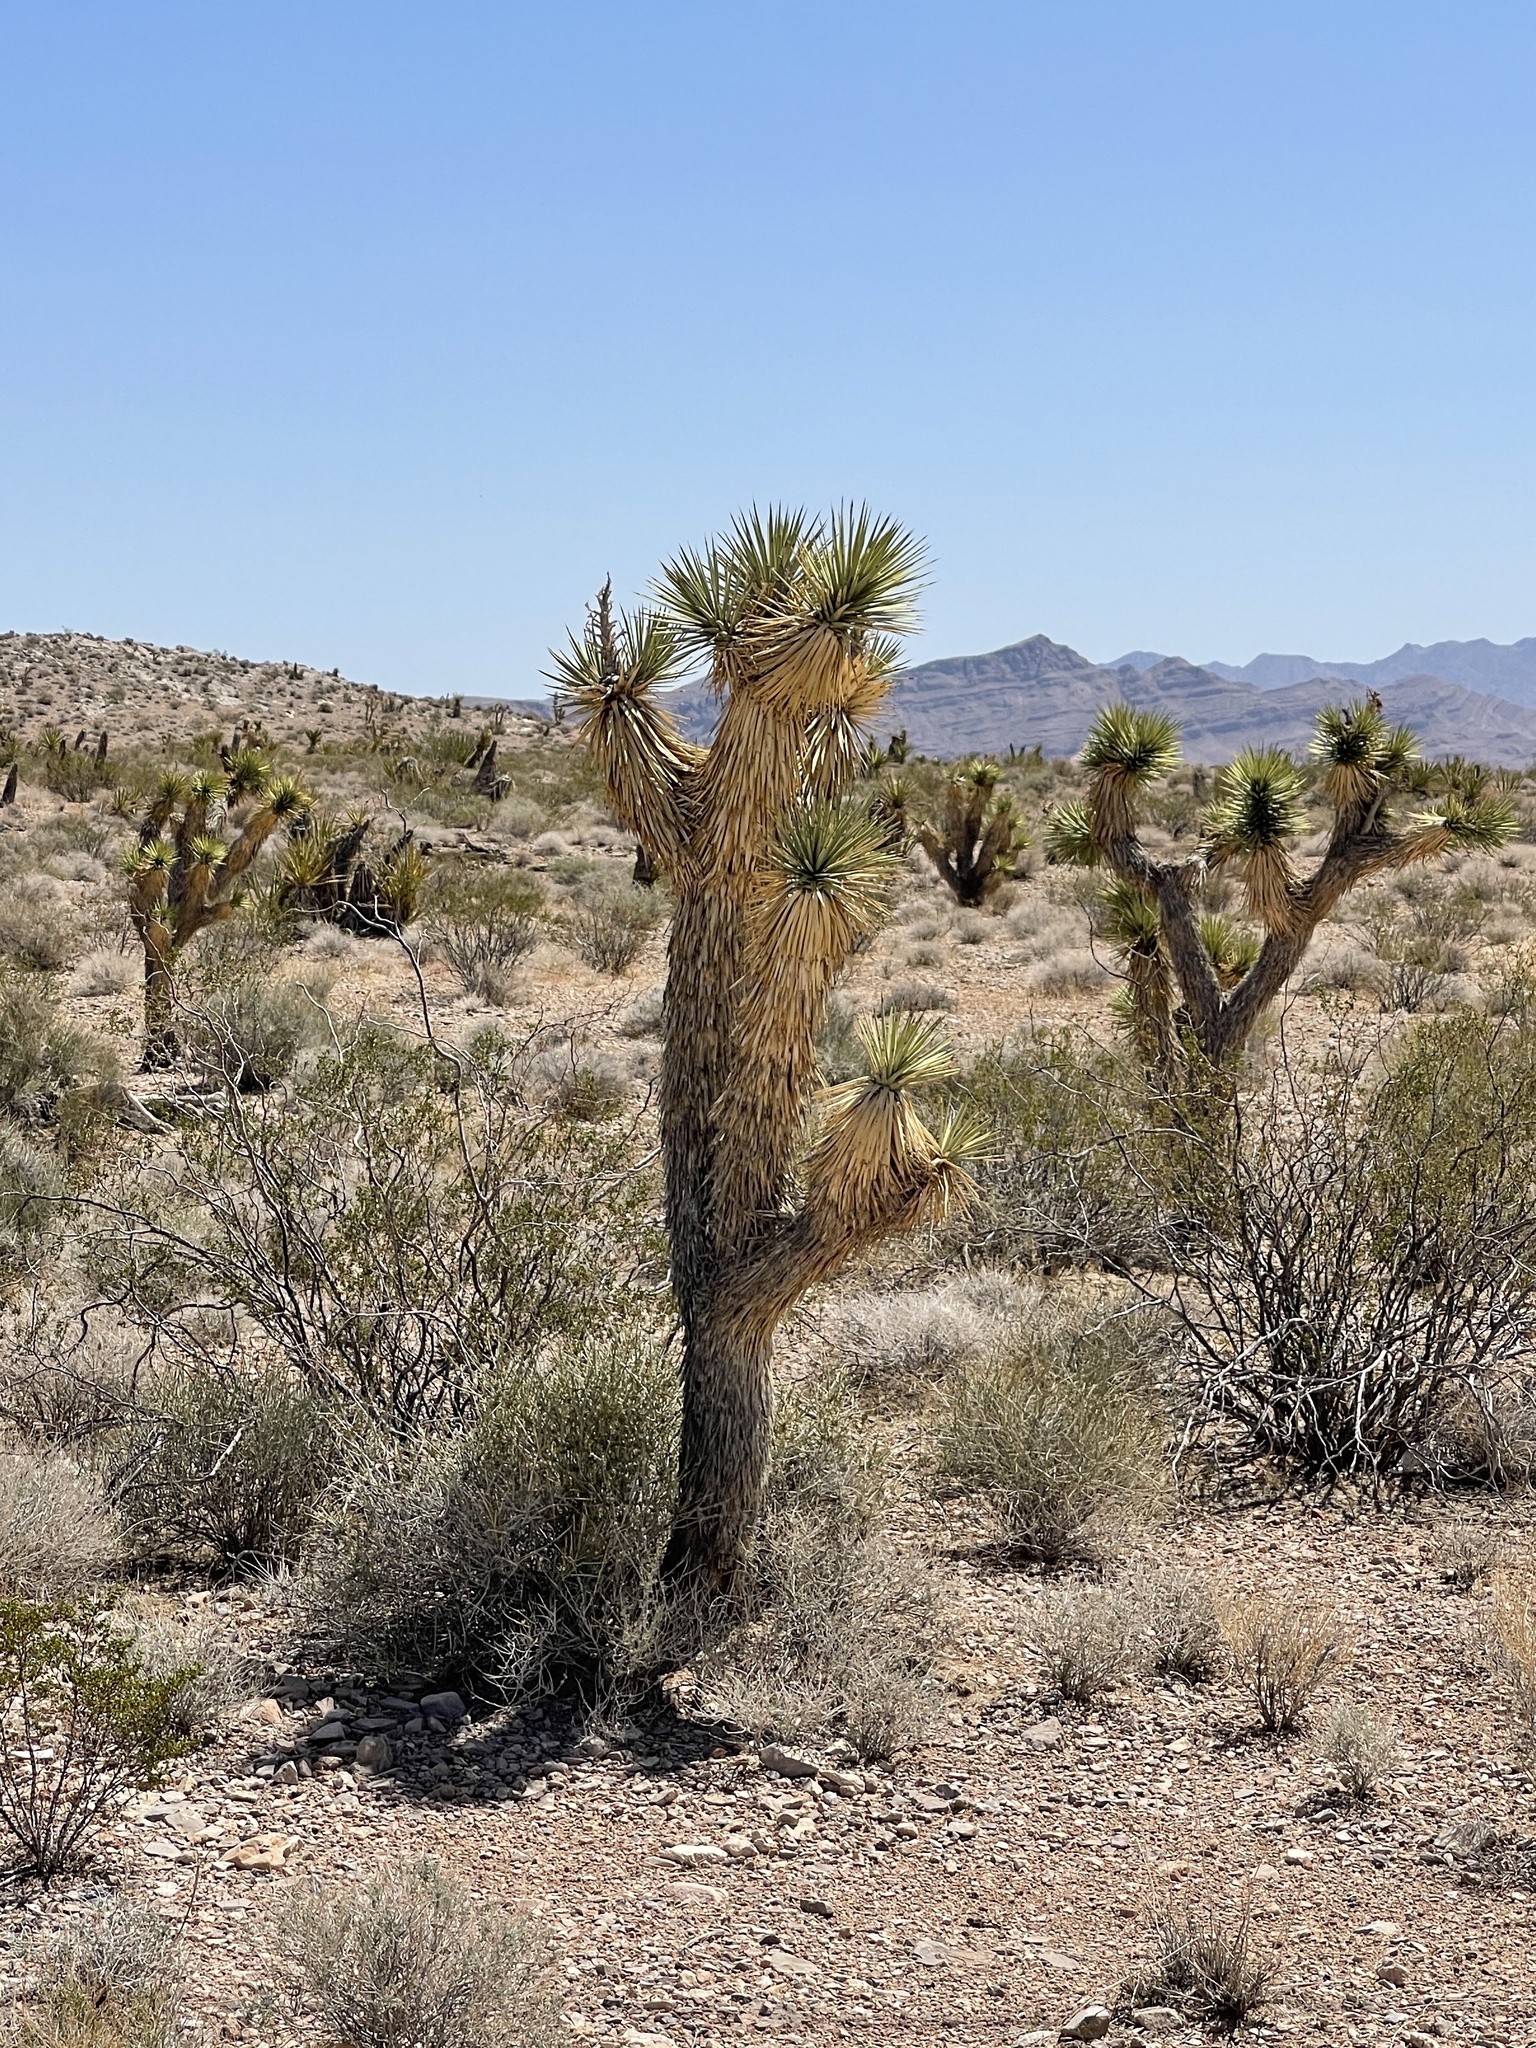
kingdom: Plantae
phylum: Tracheophyta
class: Liliopsida
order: Asparagales
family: Asparagaceae
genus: Yucca
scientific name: Yucca brevifolia
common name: Joshua tree
